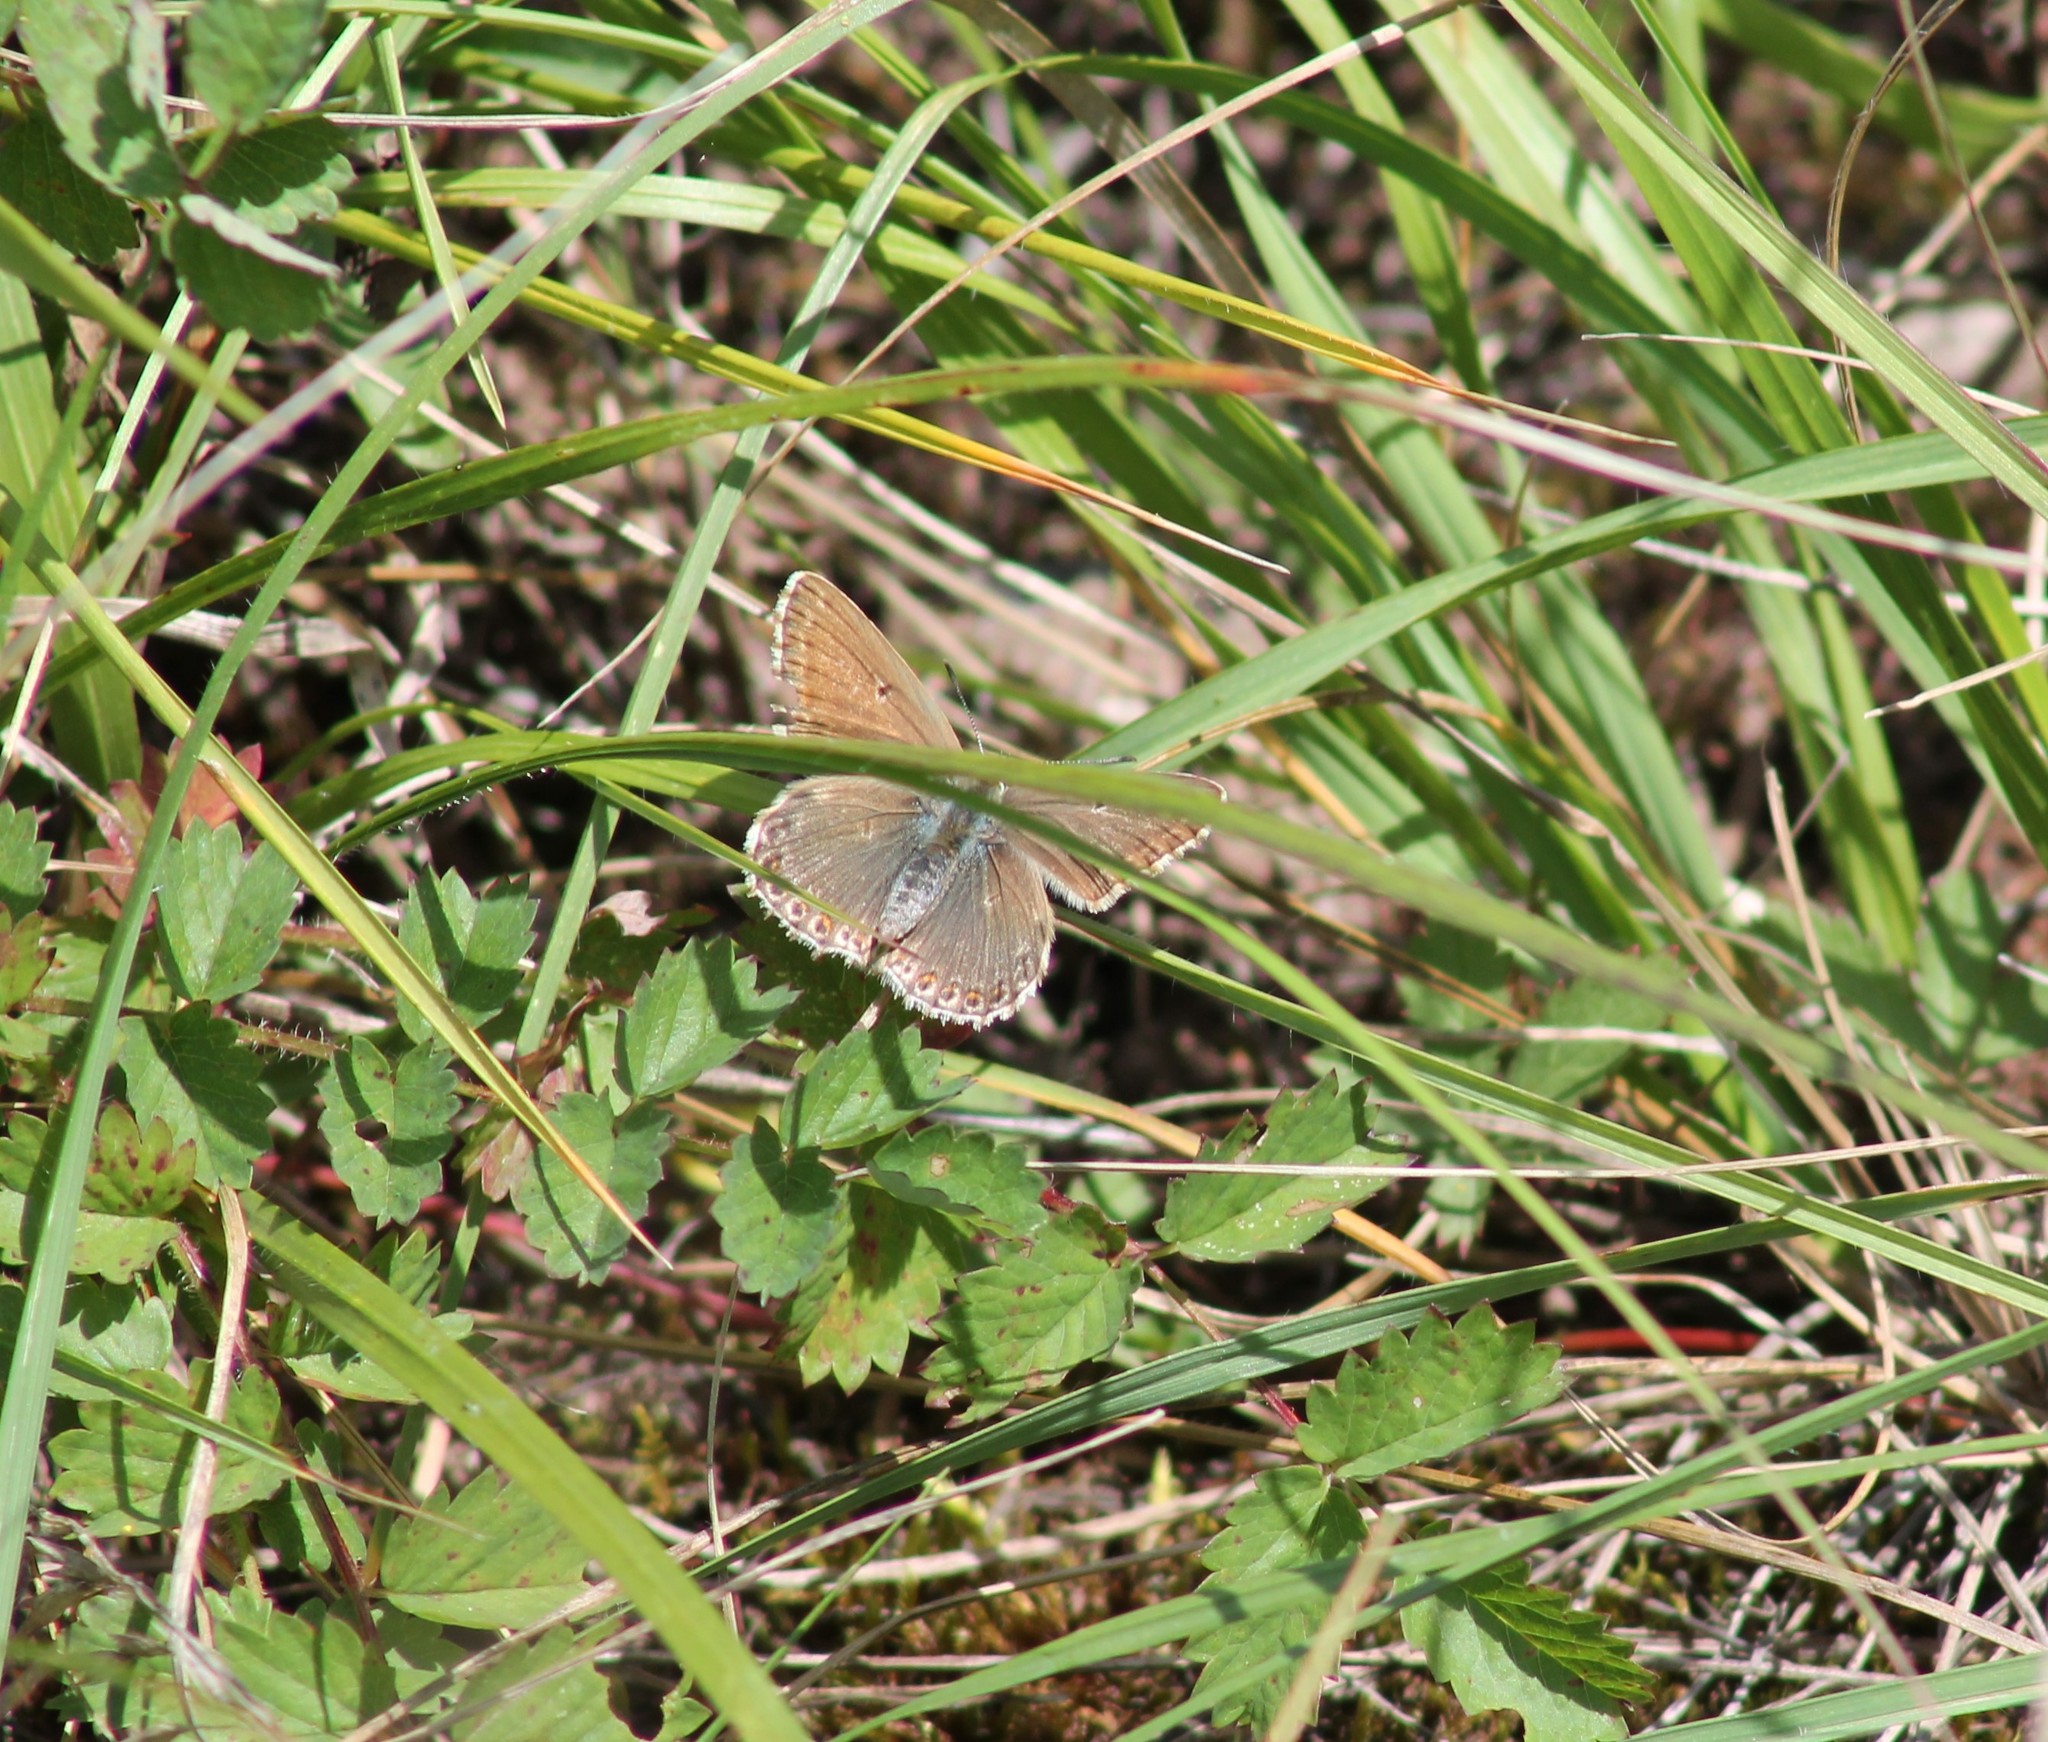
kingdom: Animalia
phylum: Arthropoda
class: Insecta
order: Lepidoptera
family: Lycaenidae
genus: Lysandra
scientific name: Lysandra coridon
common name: Chalkhill blue
